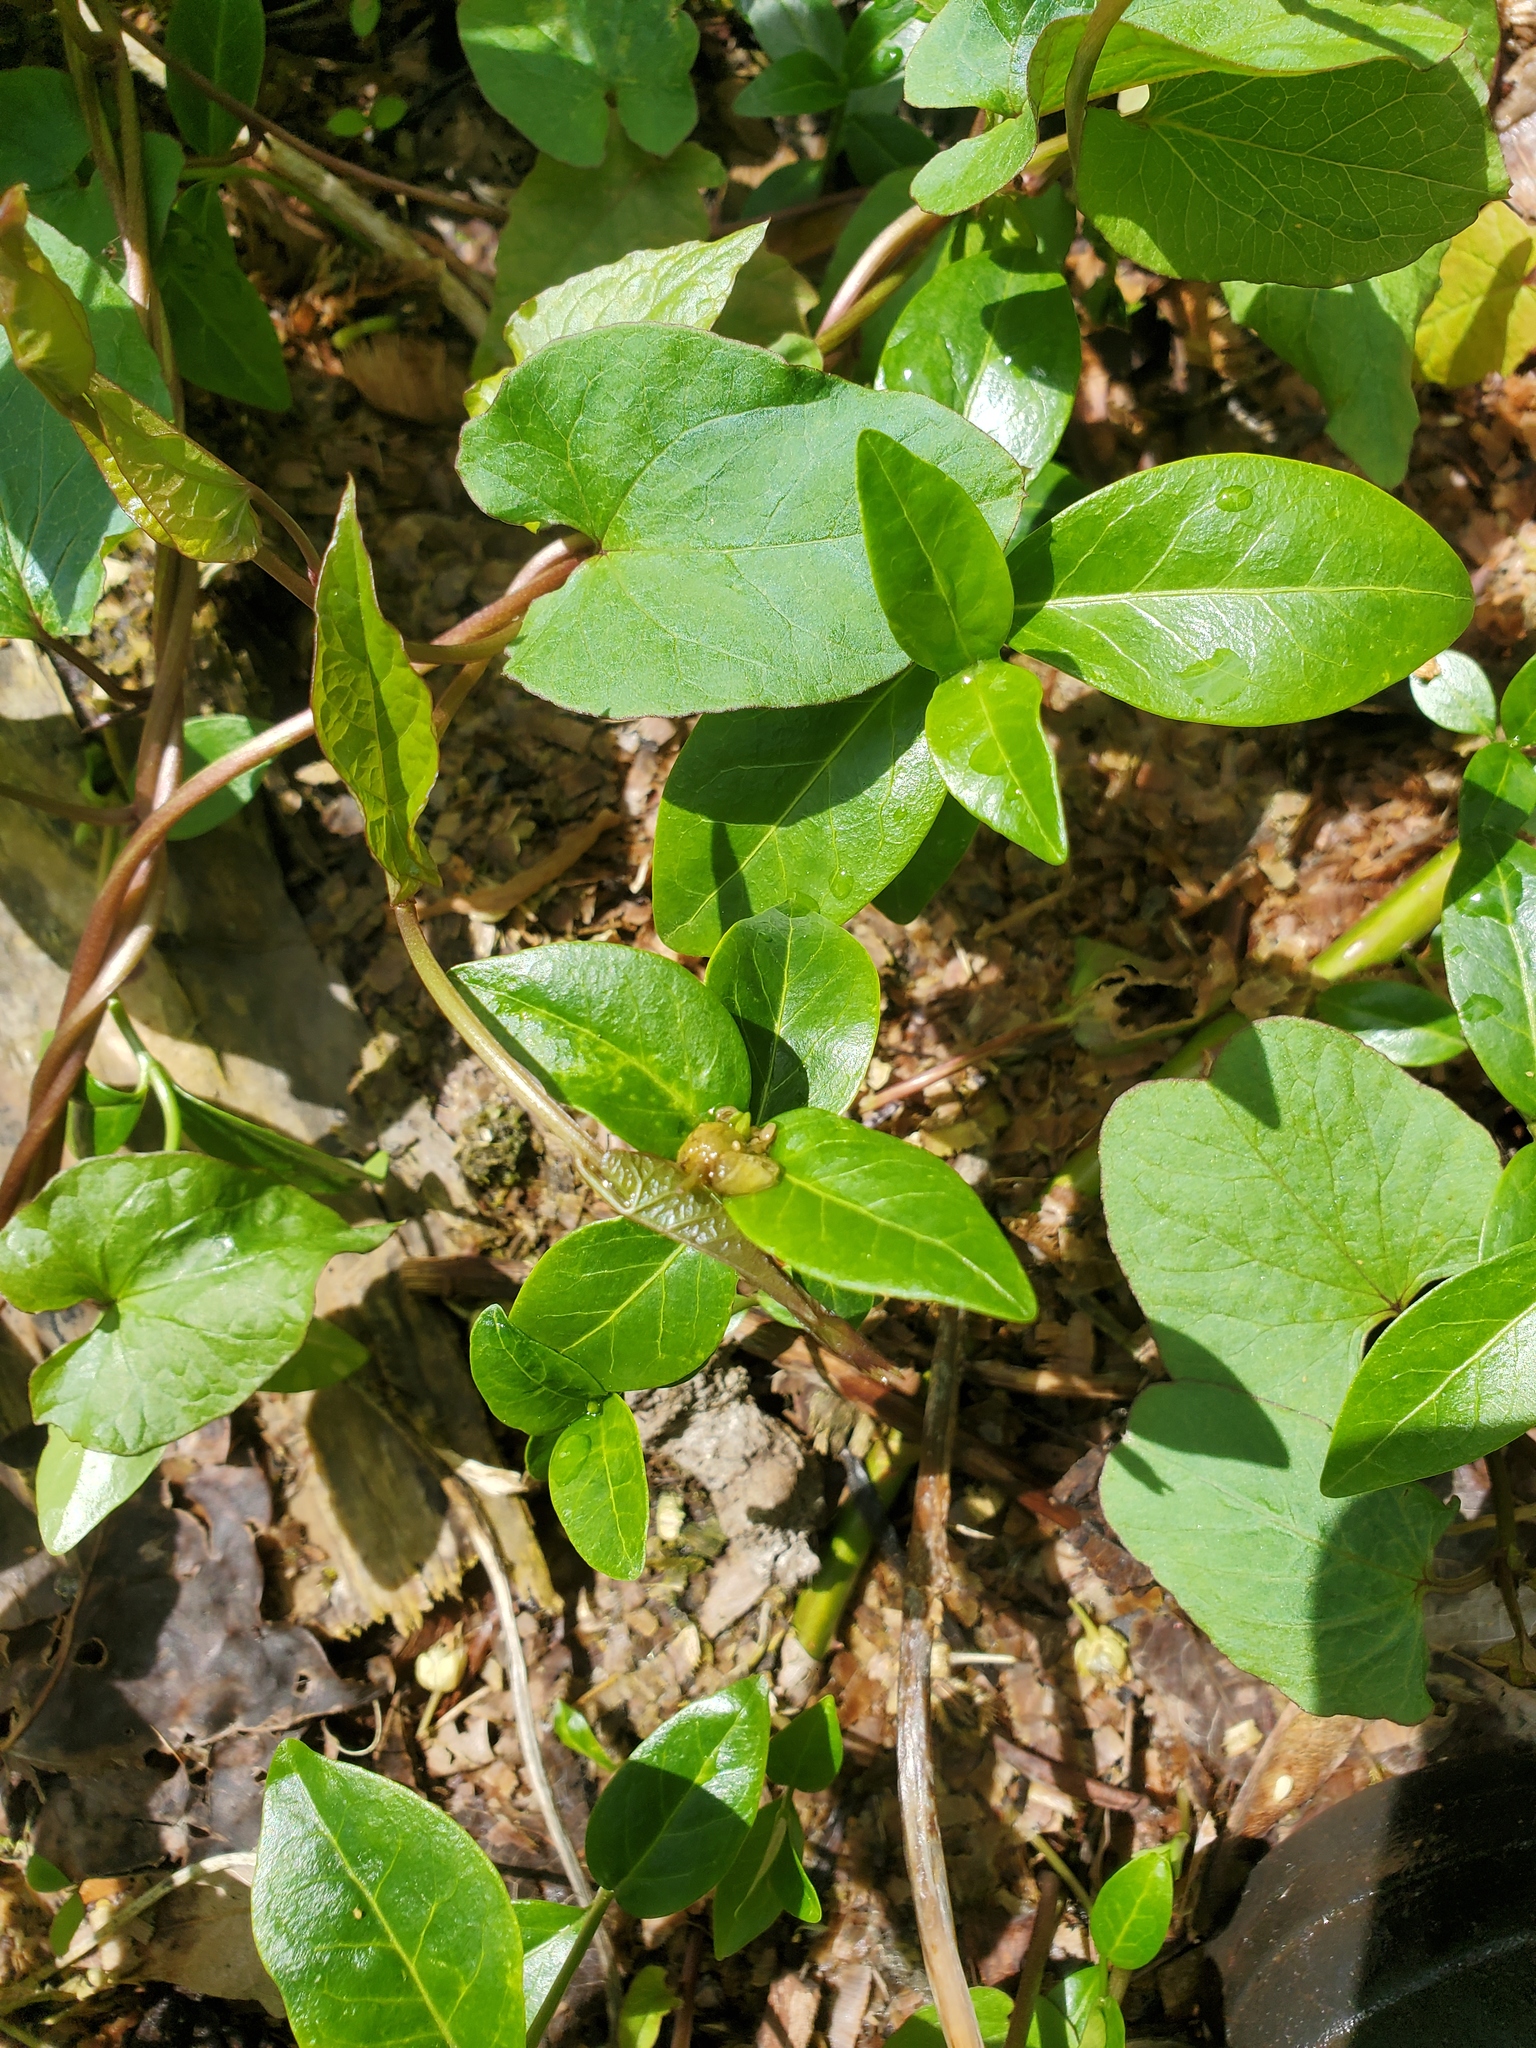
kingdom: Plantae
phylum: Tracheophyta
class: Magnoliopsida
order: Gentianales
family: Apocynaceae
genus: Vinca
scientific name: Vinca minor
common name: Lesser periwinkle
